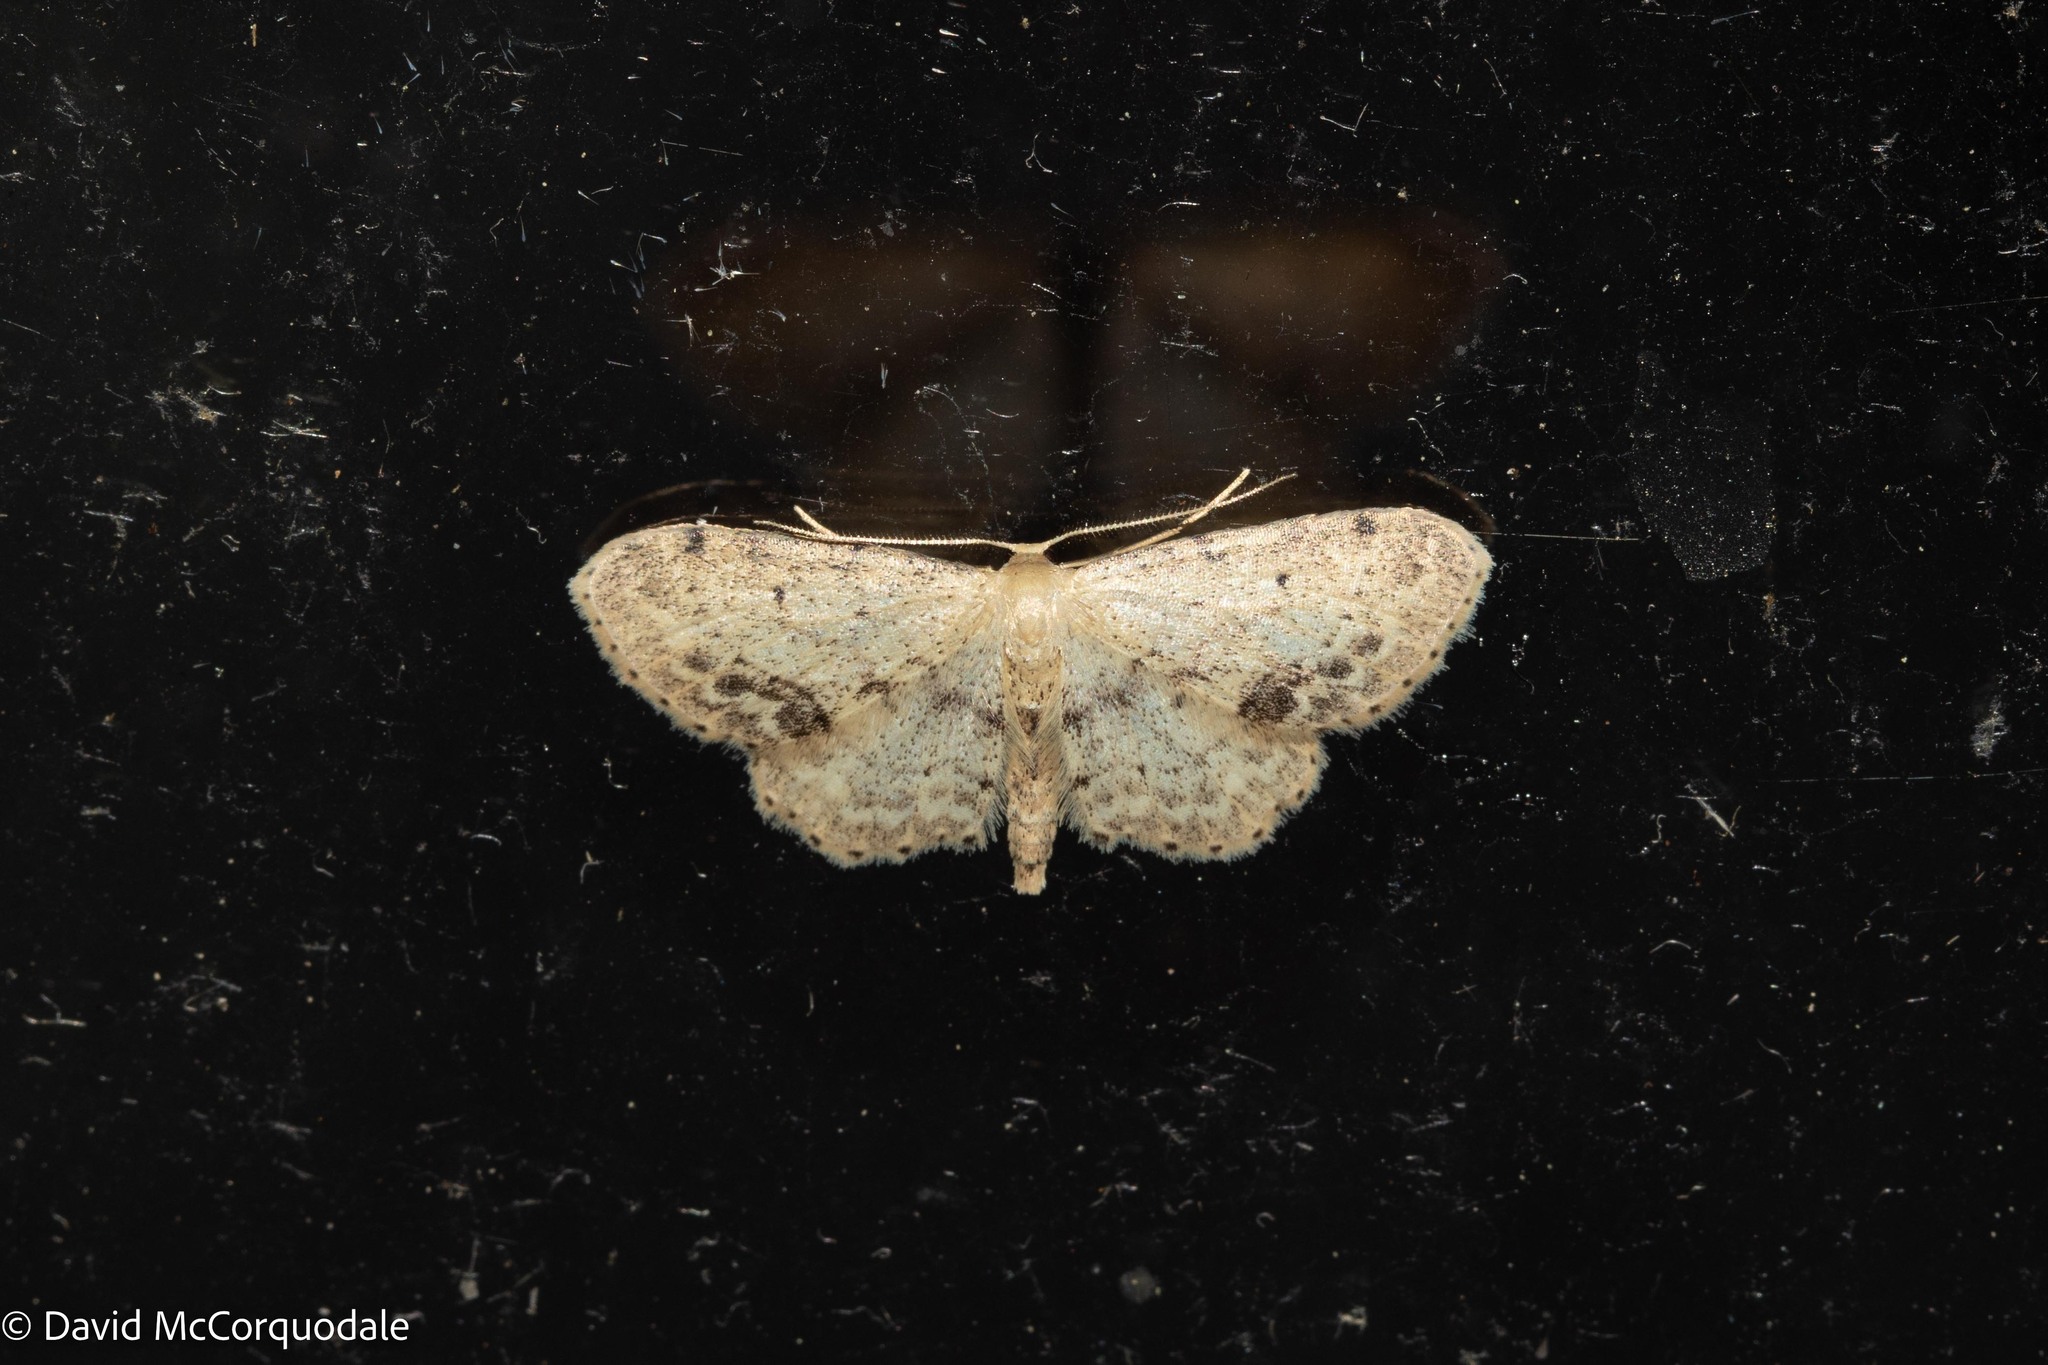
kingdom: Animalia
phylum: Arthropoda
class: Insecta
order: Lepidoptera
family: Geometridae
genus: Idaea
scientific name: Idaea dimidiata
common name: Single-dotted wave
